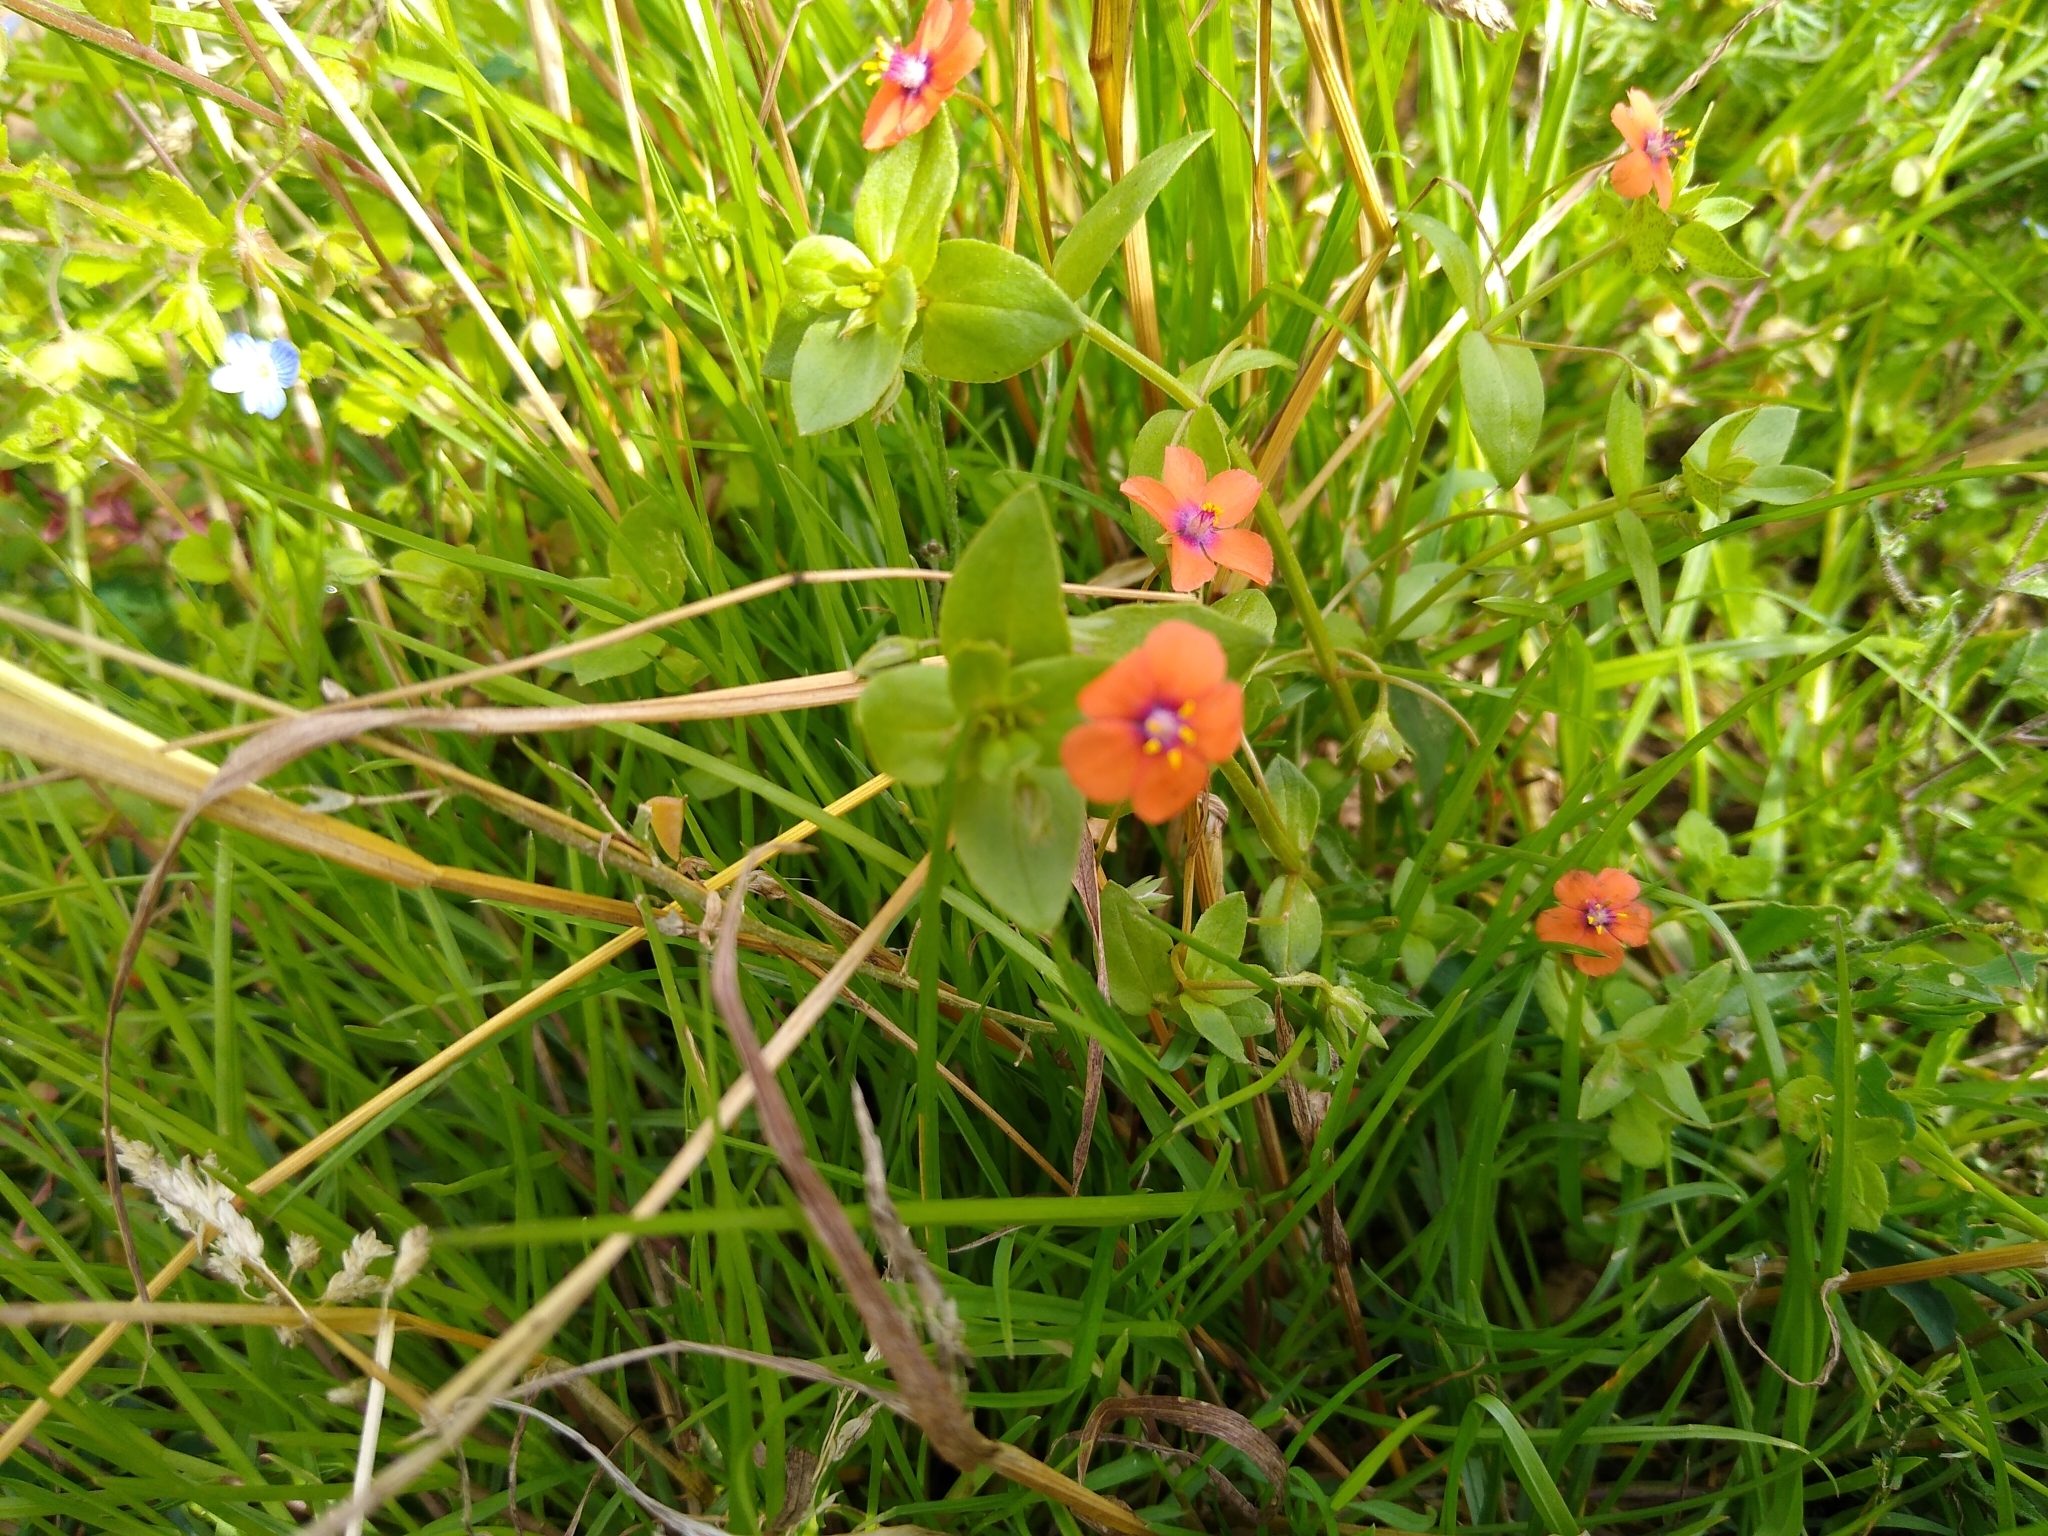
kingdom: Plantae
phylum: Tracheophyta
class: Magnoliopsida
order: Ericales
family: Primulaceae
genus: Lysimachia
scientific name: Lysimachia arvensis
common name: Scarlet pimpernel
